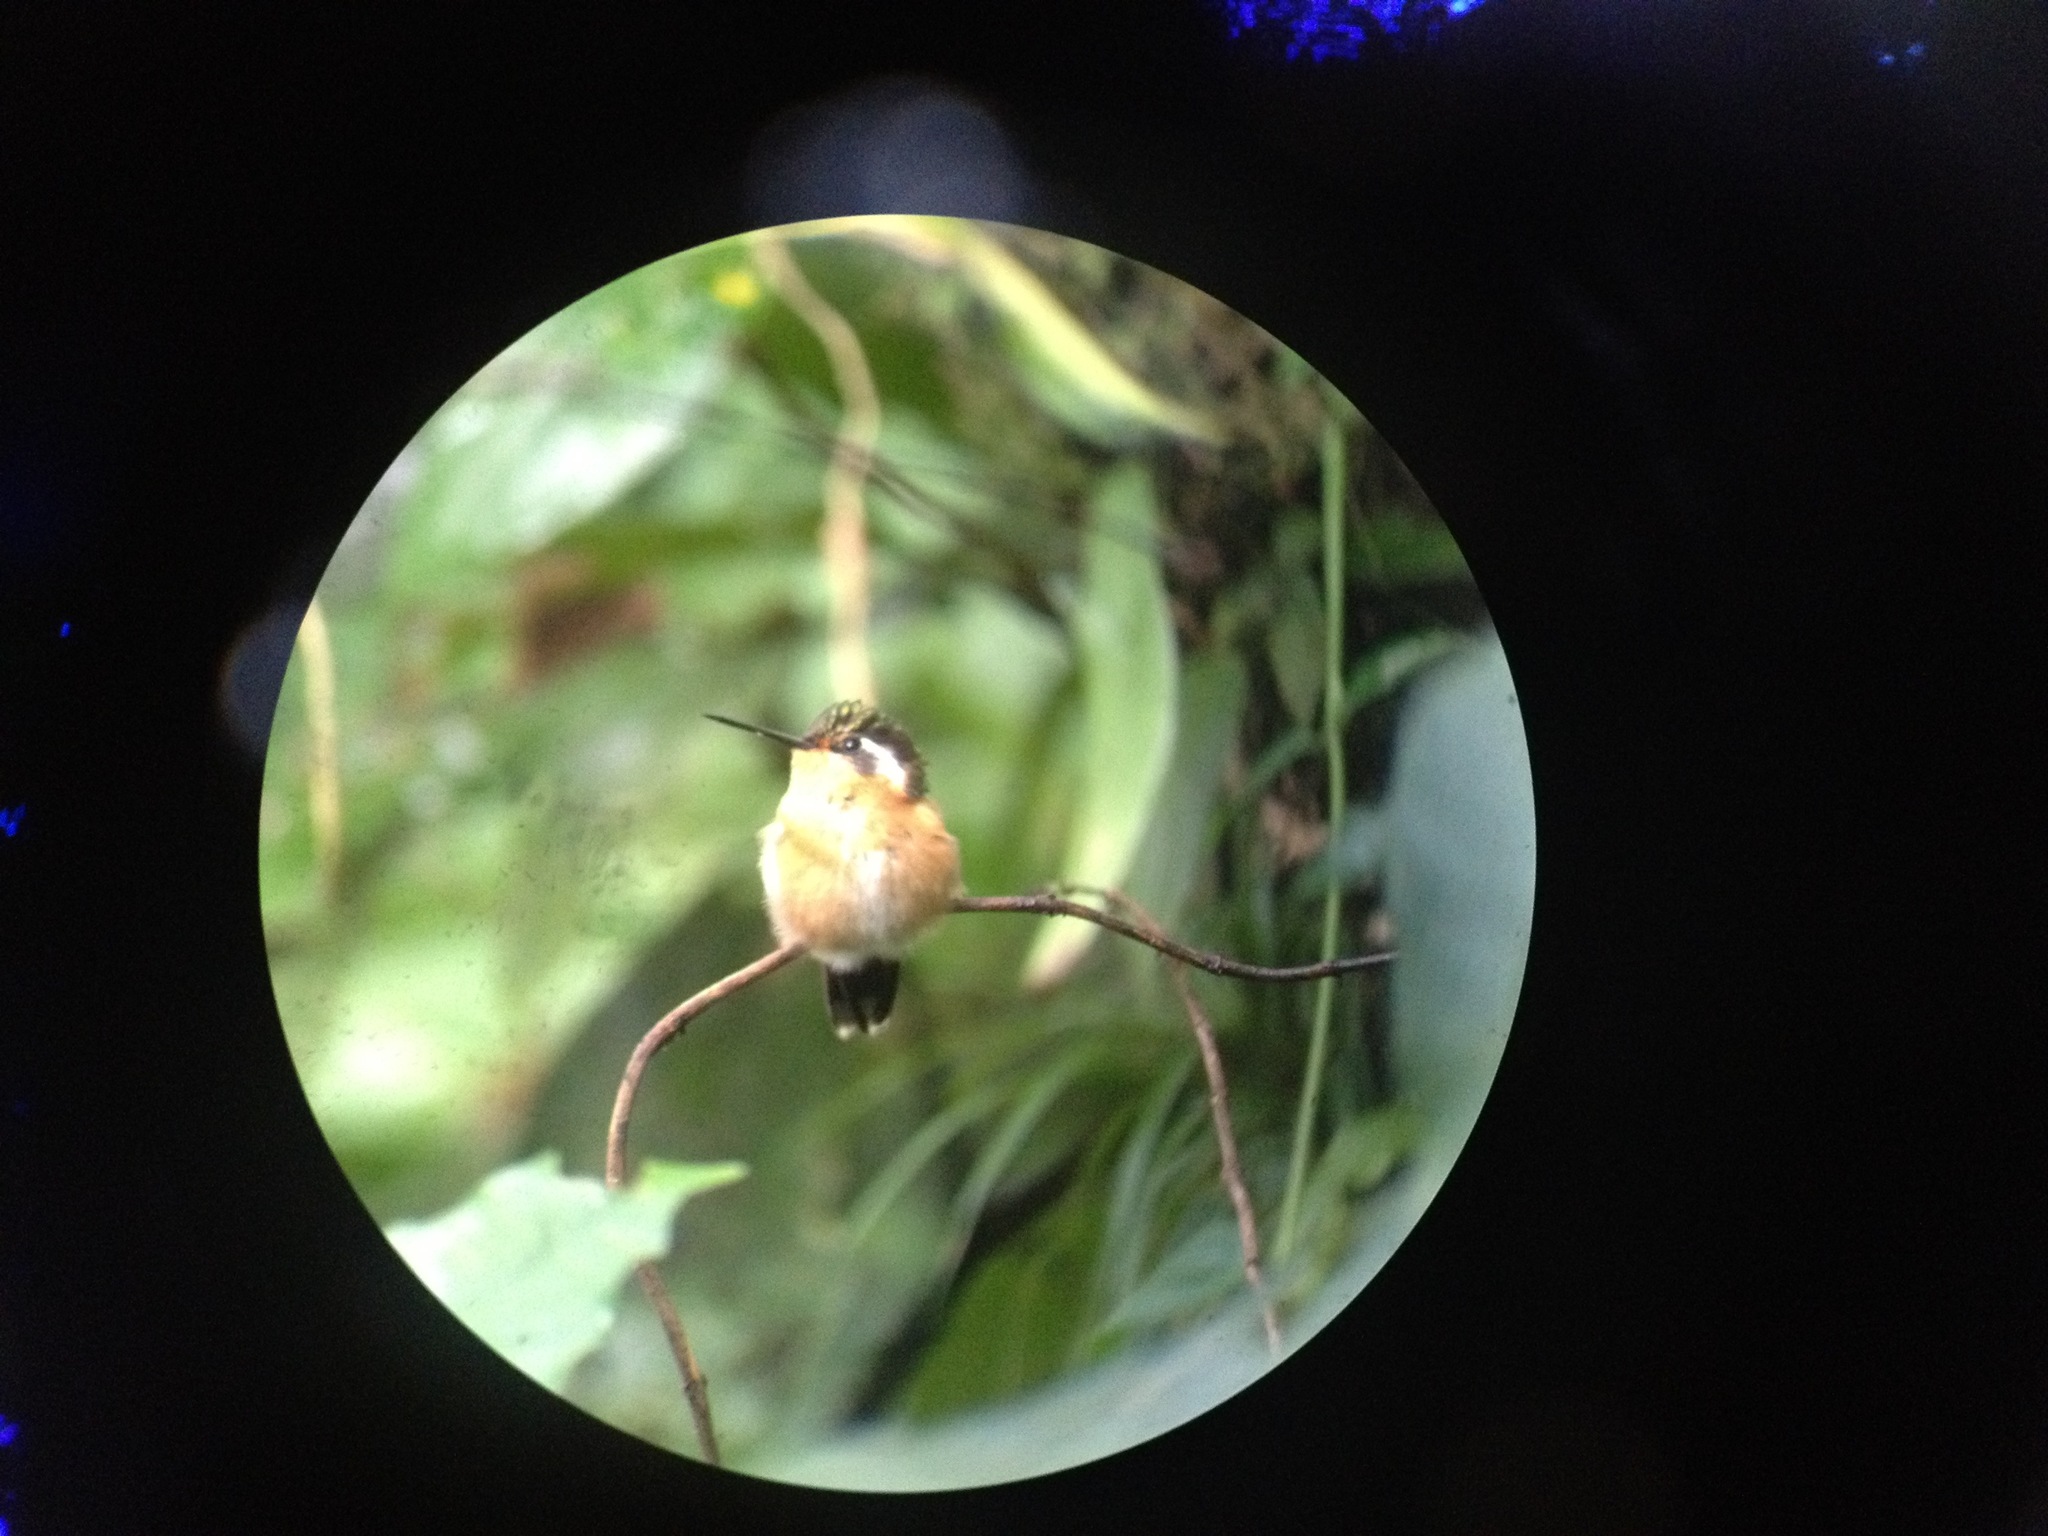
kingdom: Animalia
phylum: Chordata
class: Aves
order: Apodiformes
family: Trochilidae
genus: Lampornis
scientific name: Lampornis calolaemus
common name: Purple-throated mountain-gem
